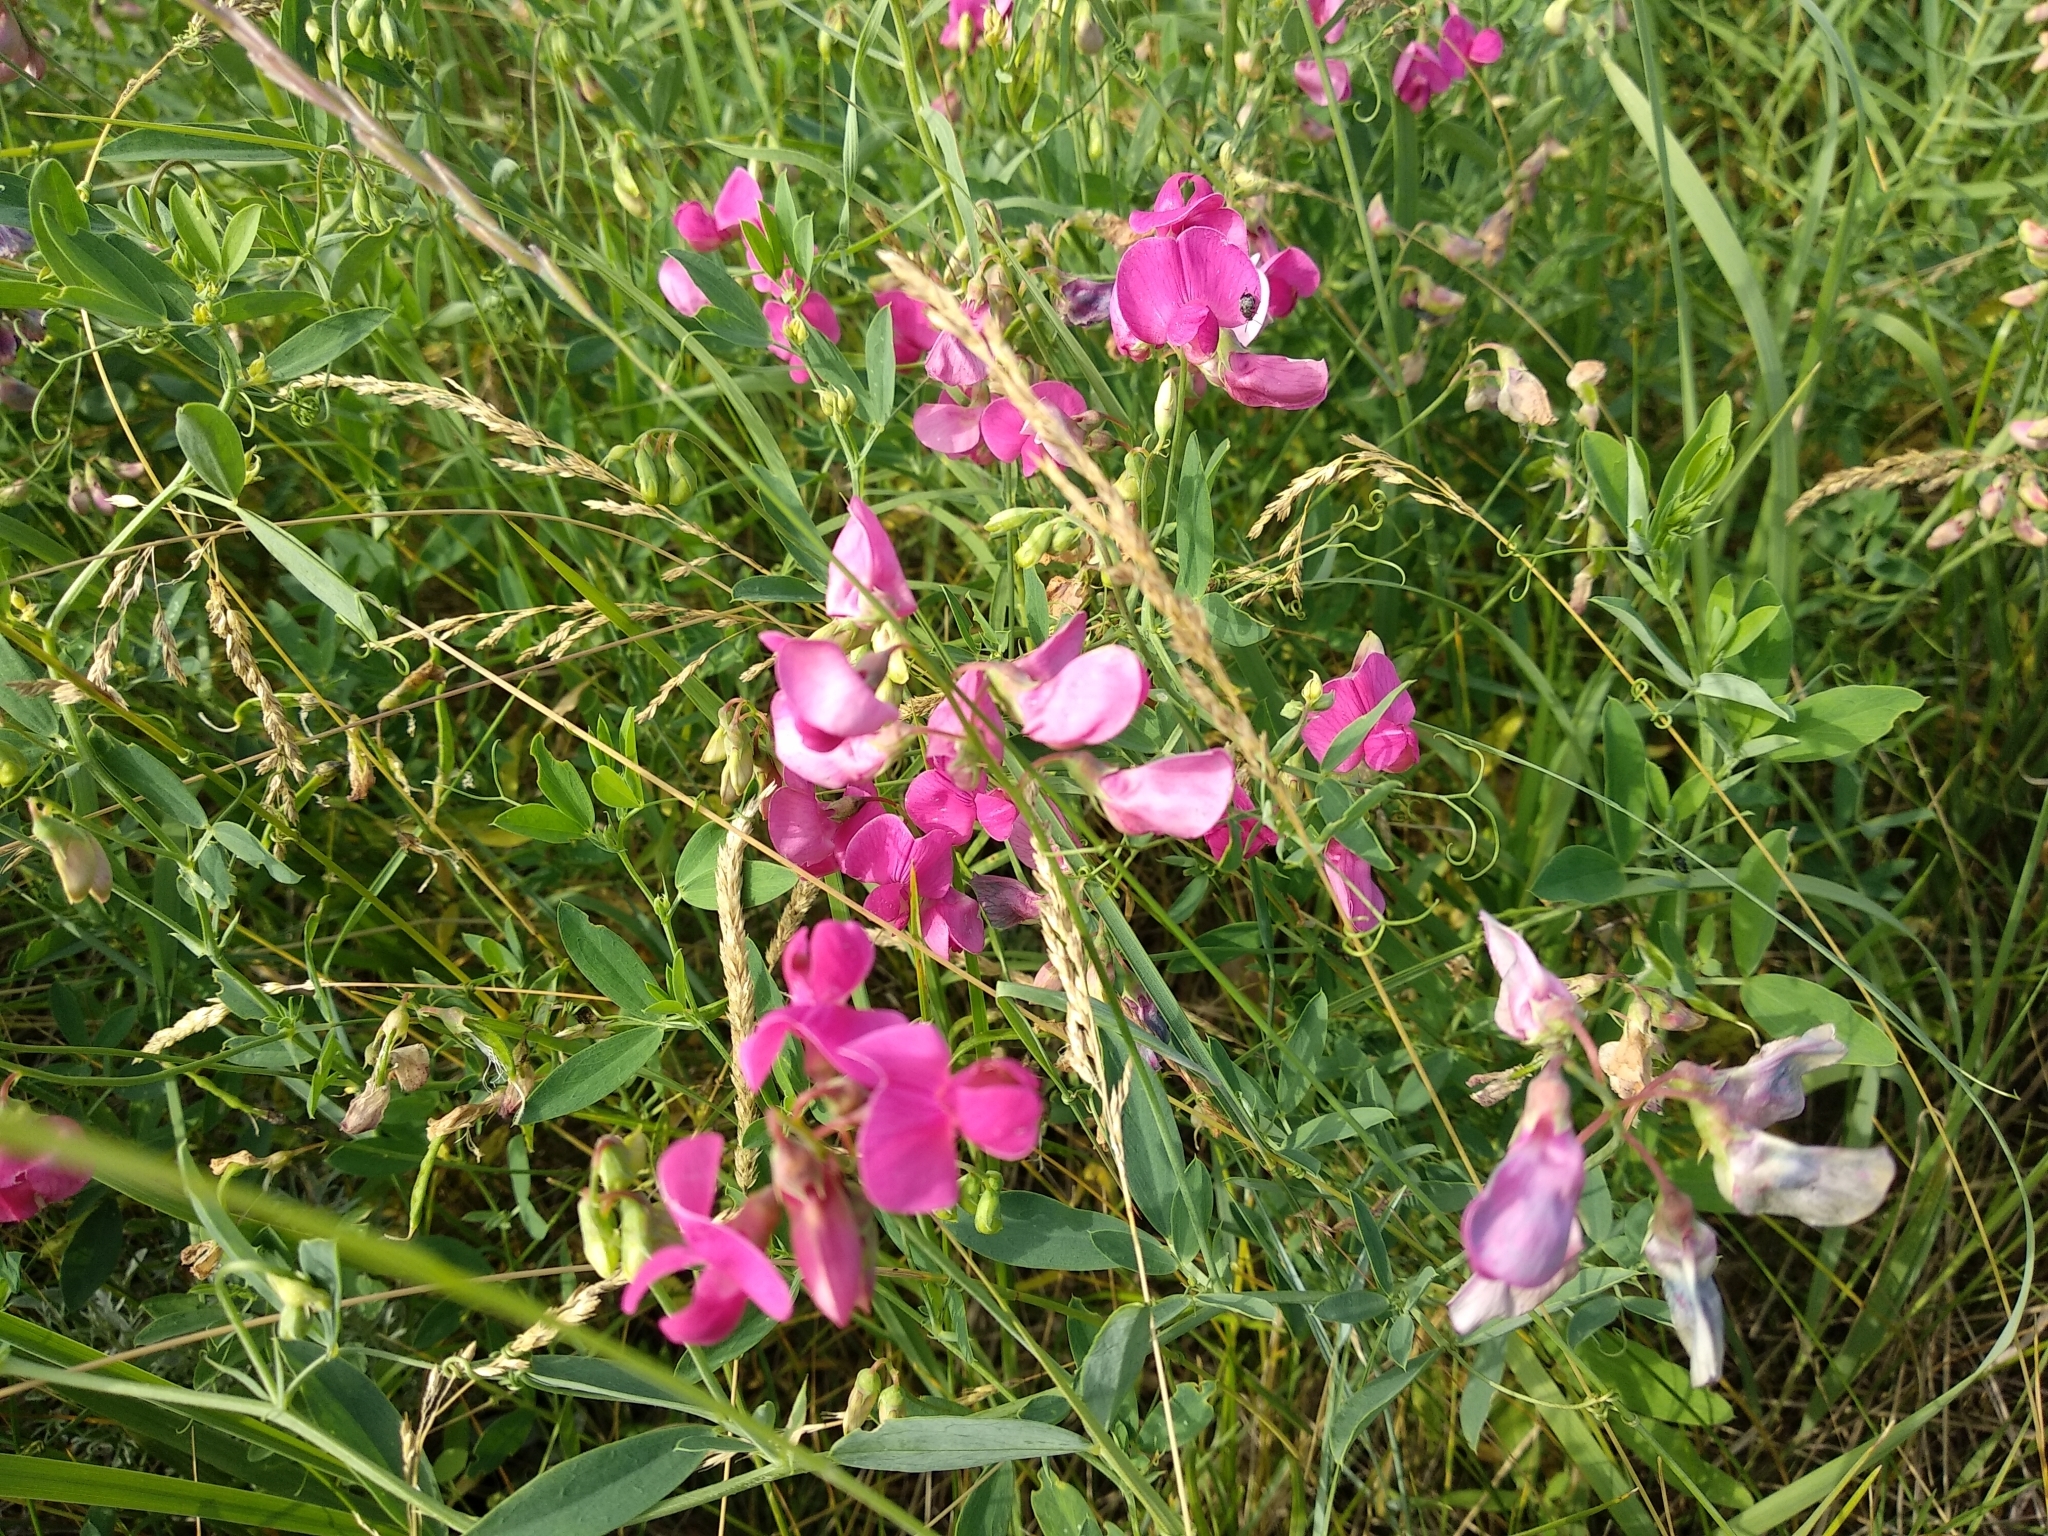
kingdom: Plantae
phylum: Tracheophyta
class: Magnoliopsida
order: Fabales
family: Fabaceae
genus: Lathyrus
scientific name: Lathyrus tuberosus
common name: Tuberous pea
